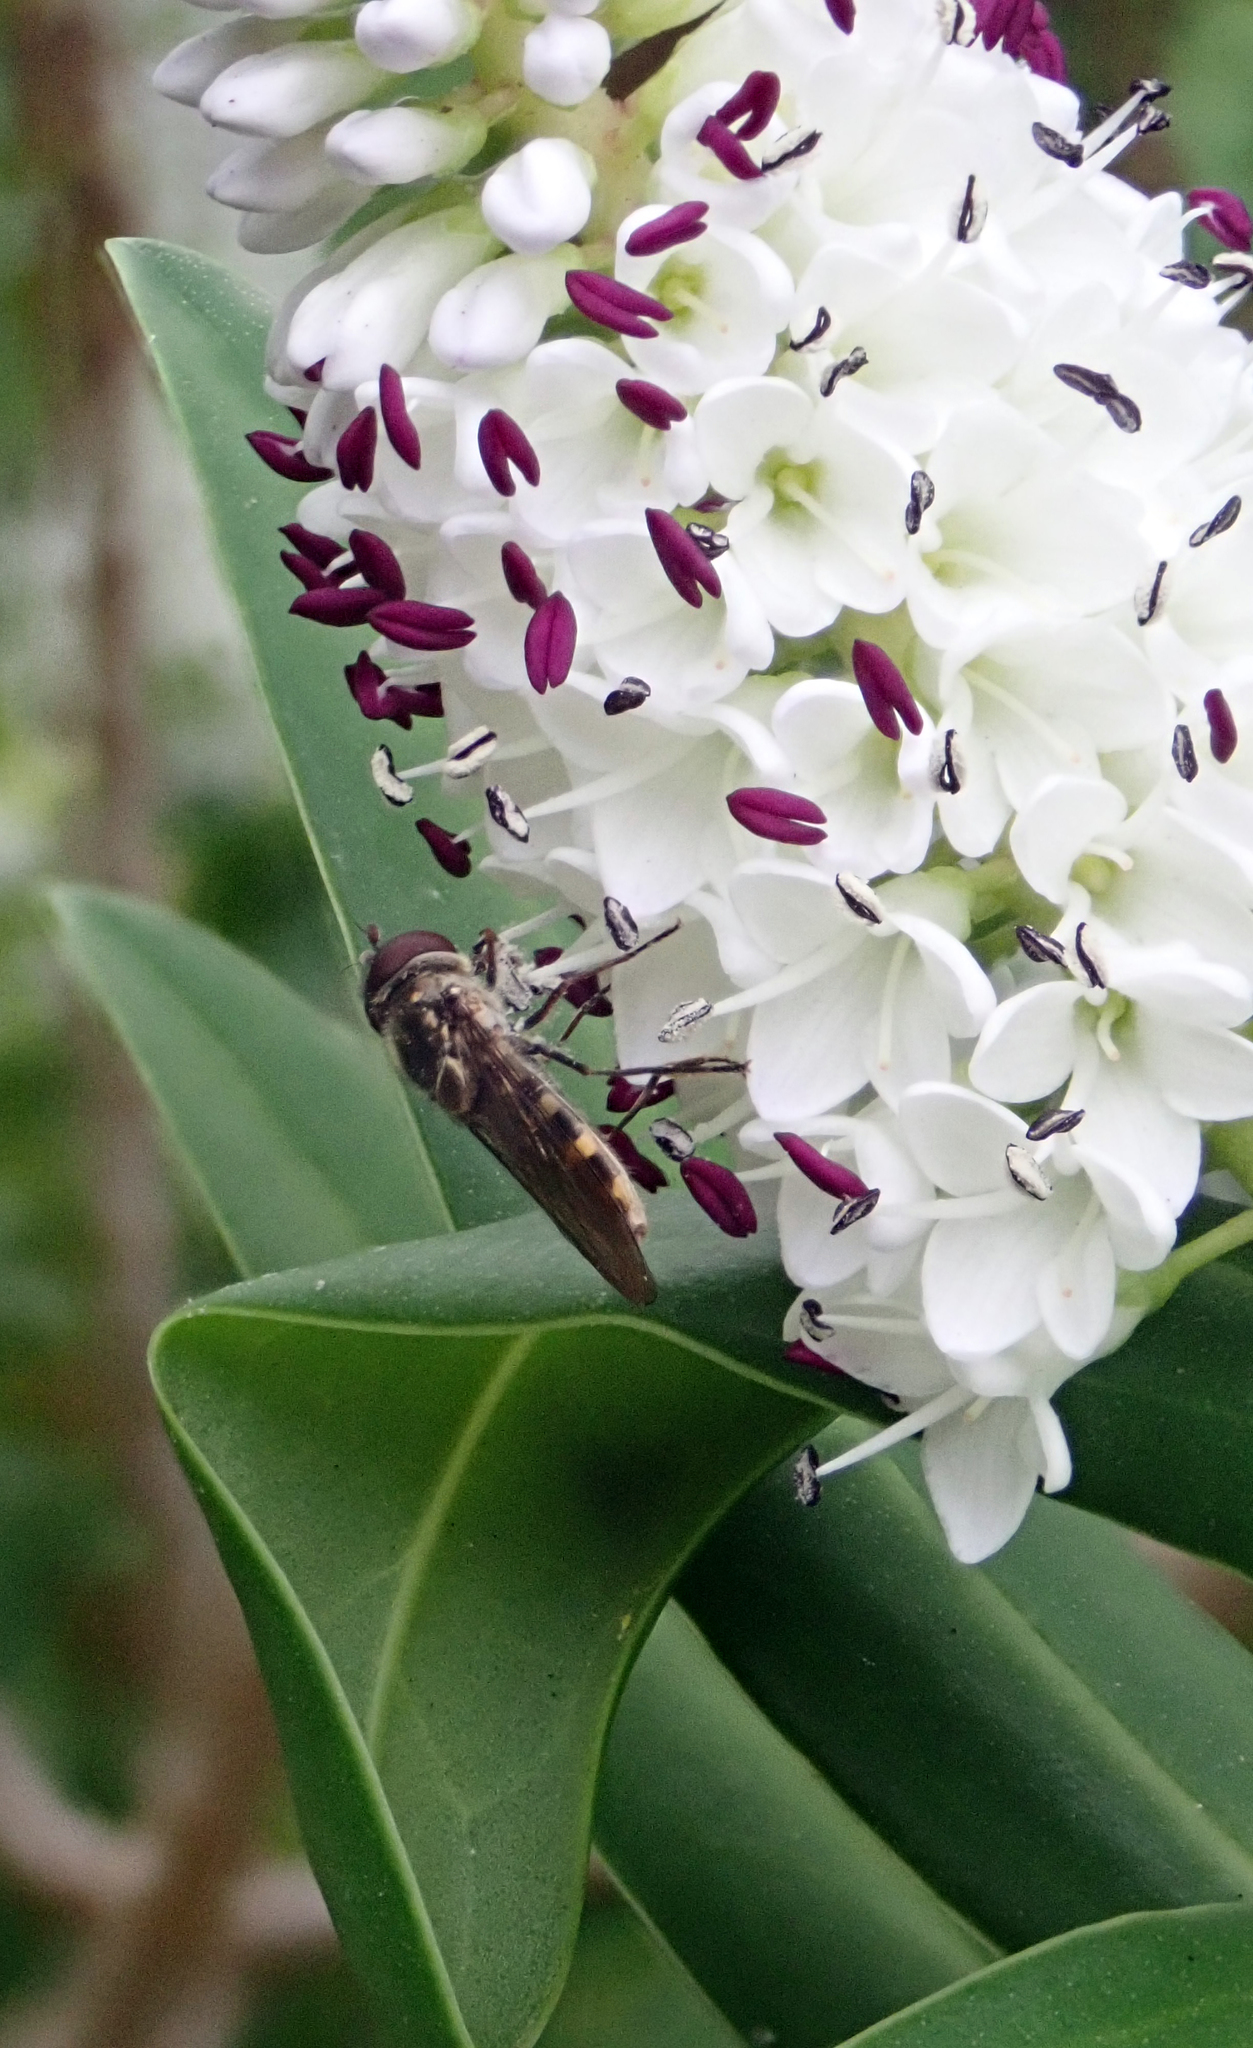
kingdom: Animalia
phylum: Arthropoda
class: Insecta
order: Diptera
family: Syrphidae
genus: Melangyna
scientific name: Melangyna novaezelandiae
